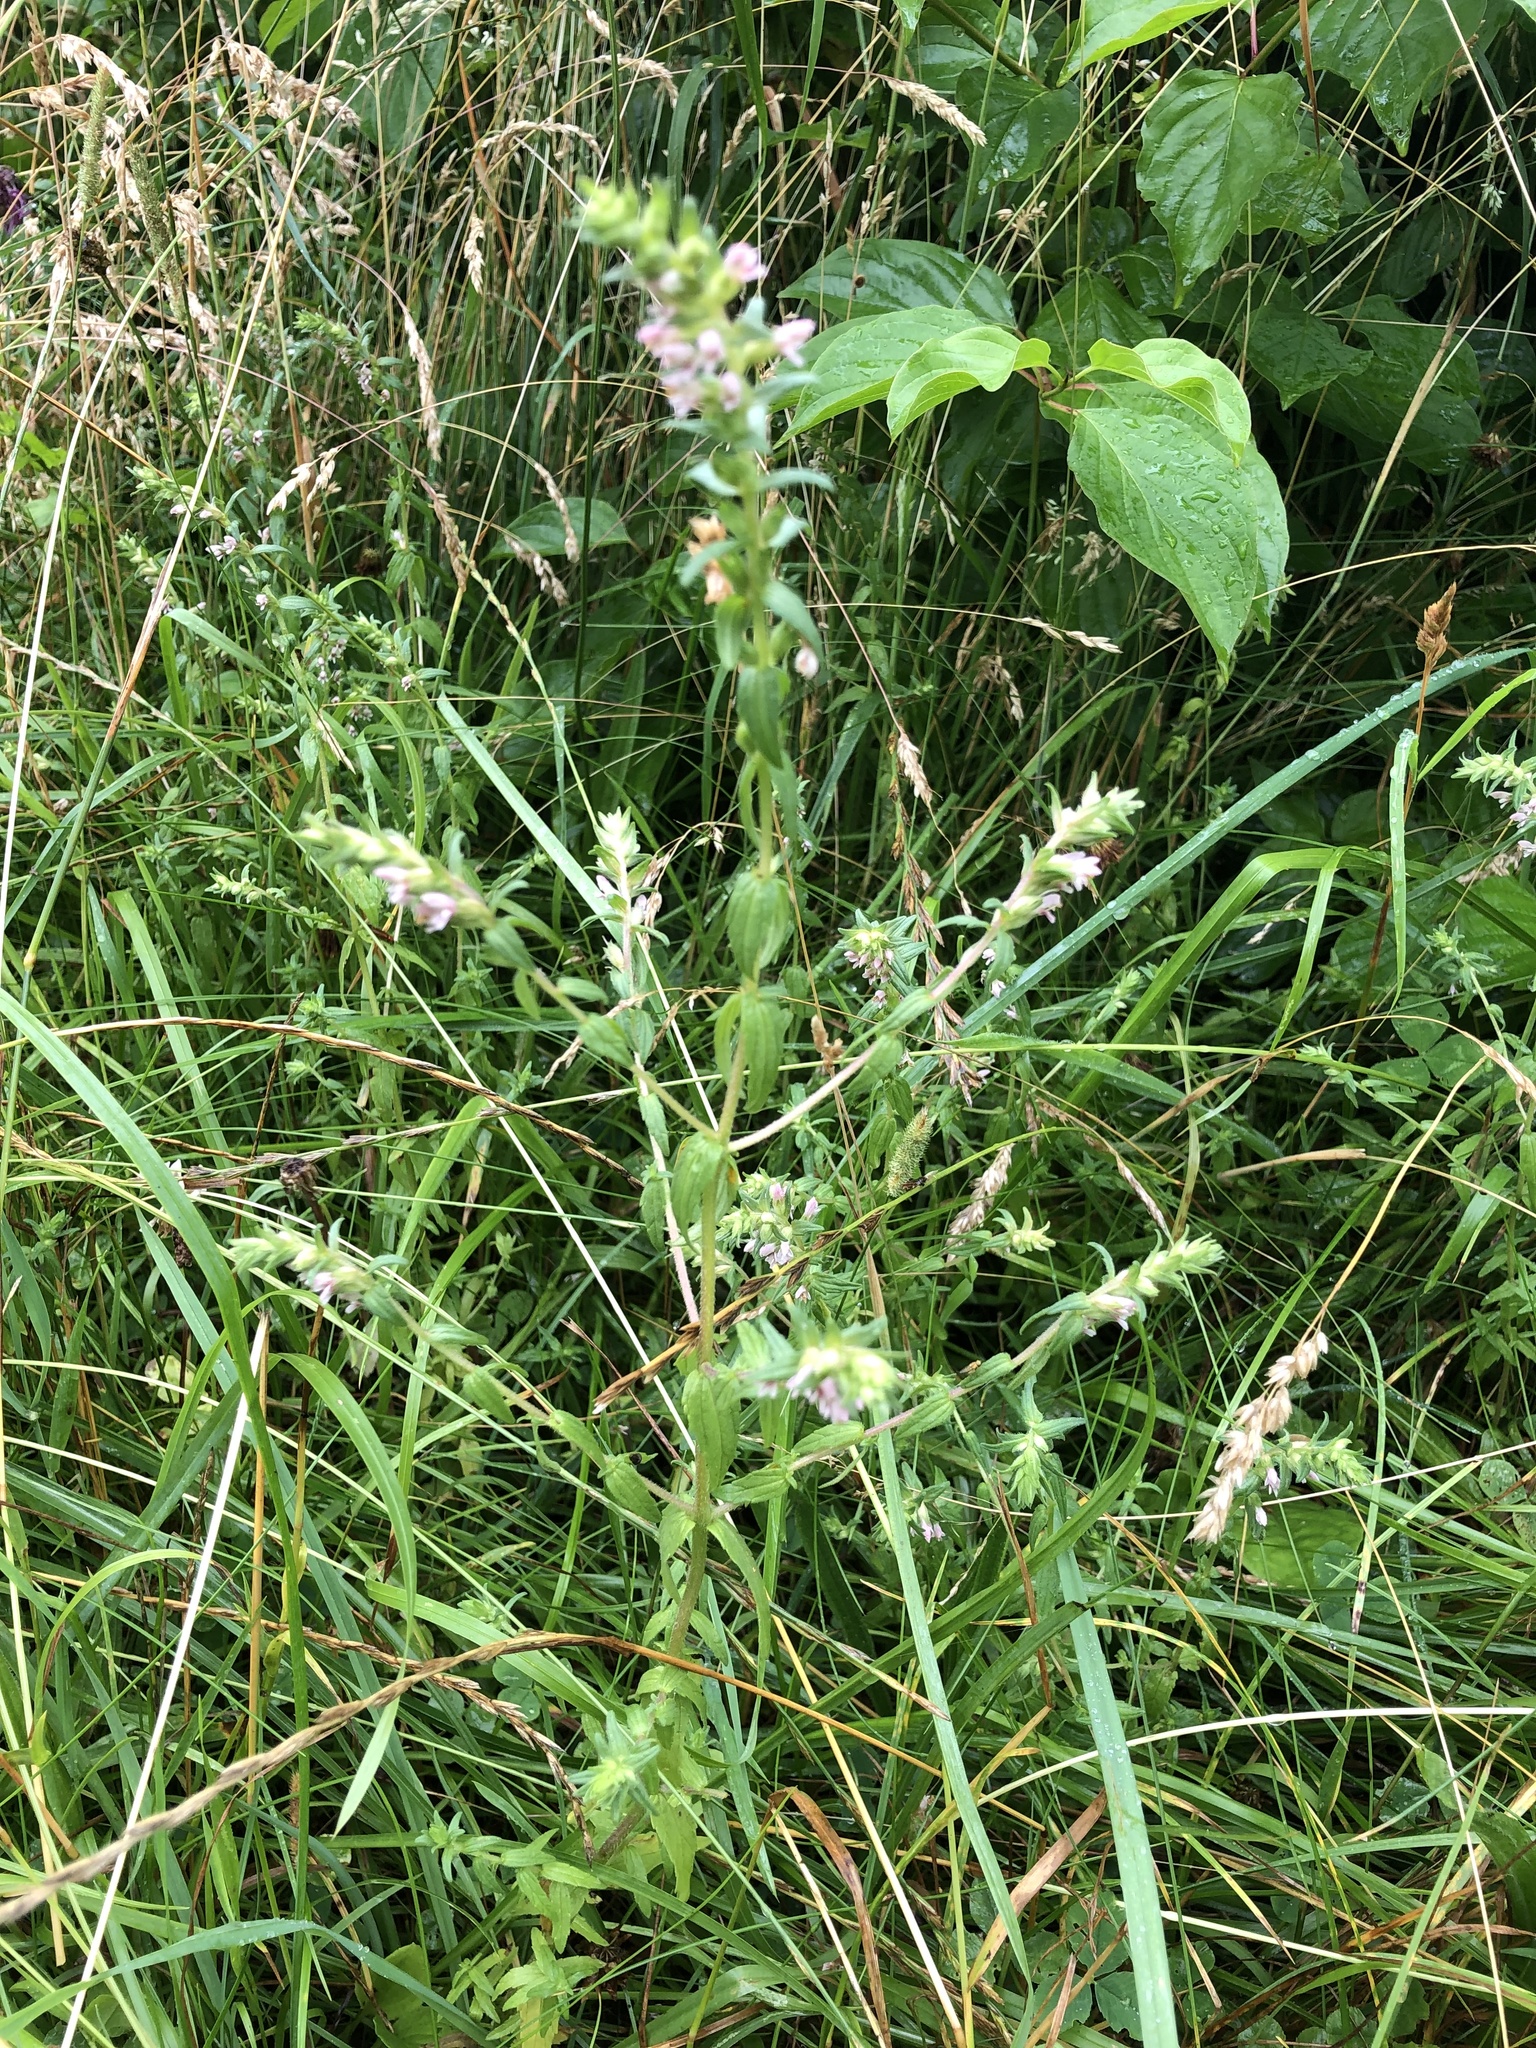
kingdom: Plantae
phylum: Tracheophyta
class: Magnoliopsida
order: Lamiales
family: Orobanchaceae
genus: Odontites
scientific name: Odontites vernus
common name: Red bartsia
